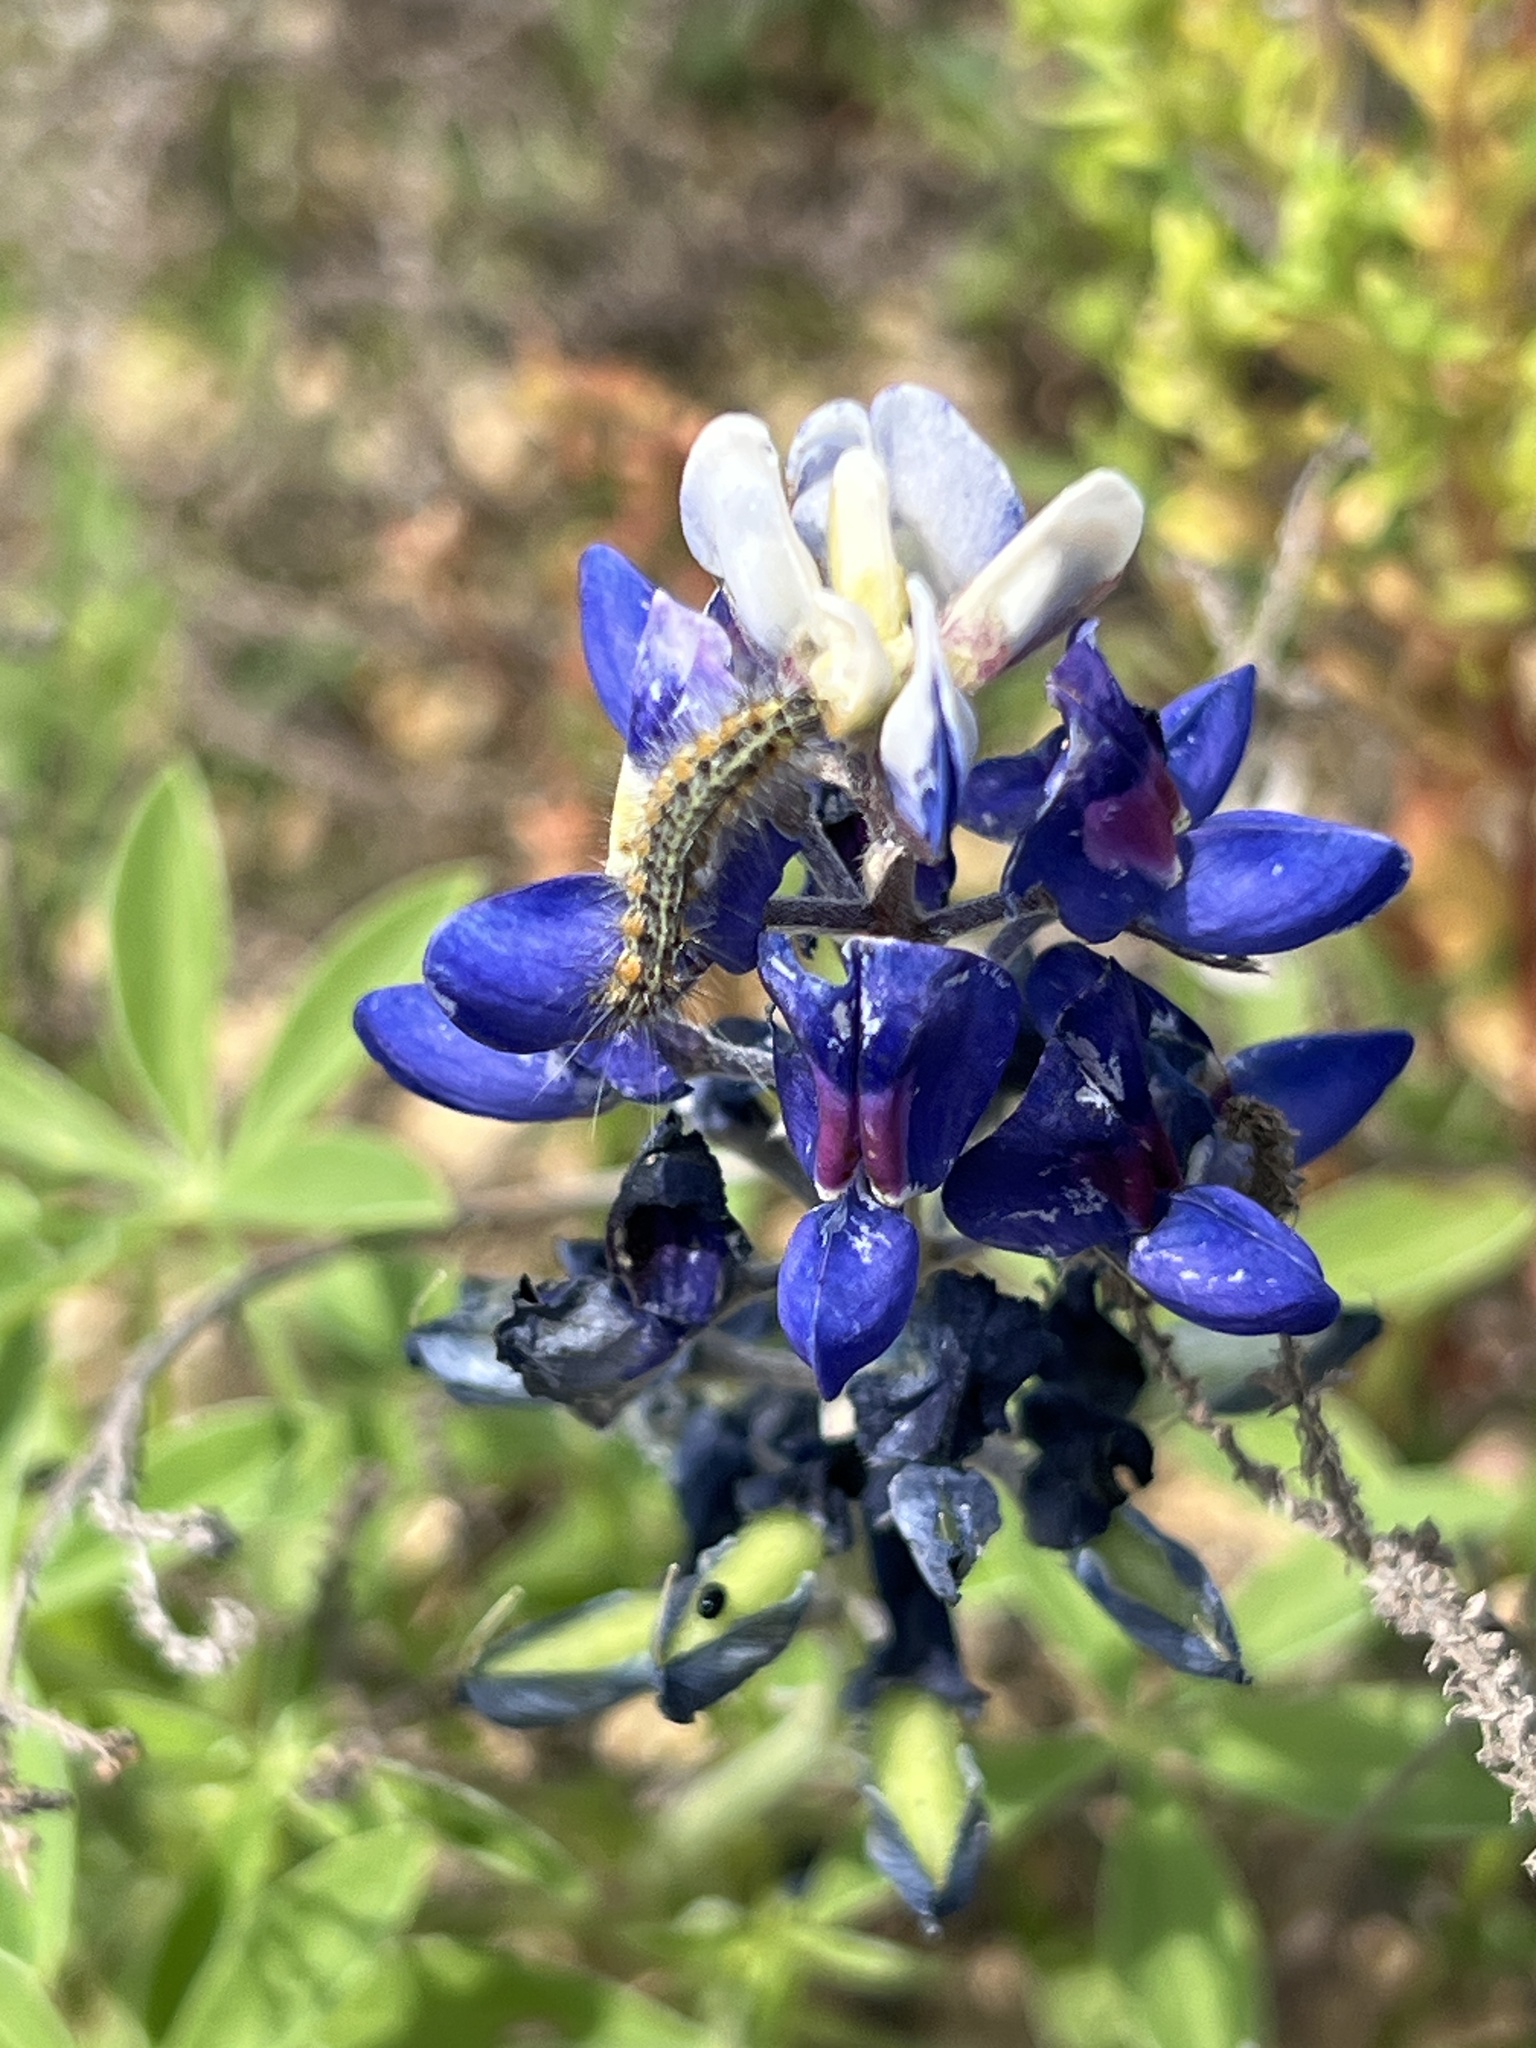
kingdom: Animalia
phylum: Arthropoda
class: Insecta
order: Lepidoptera
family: Erebidae
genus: Estigmene
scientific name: Estigmene acrea
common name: Salt marsh moth
